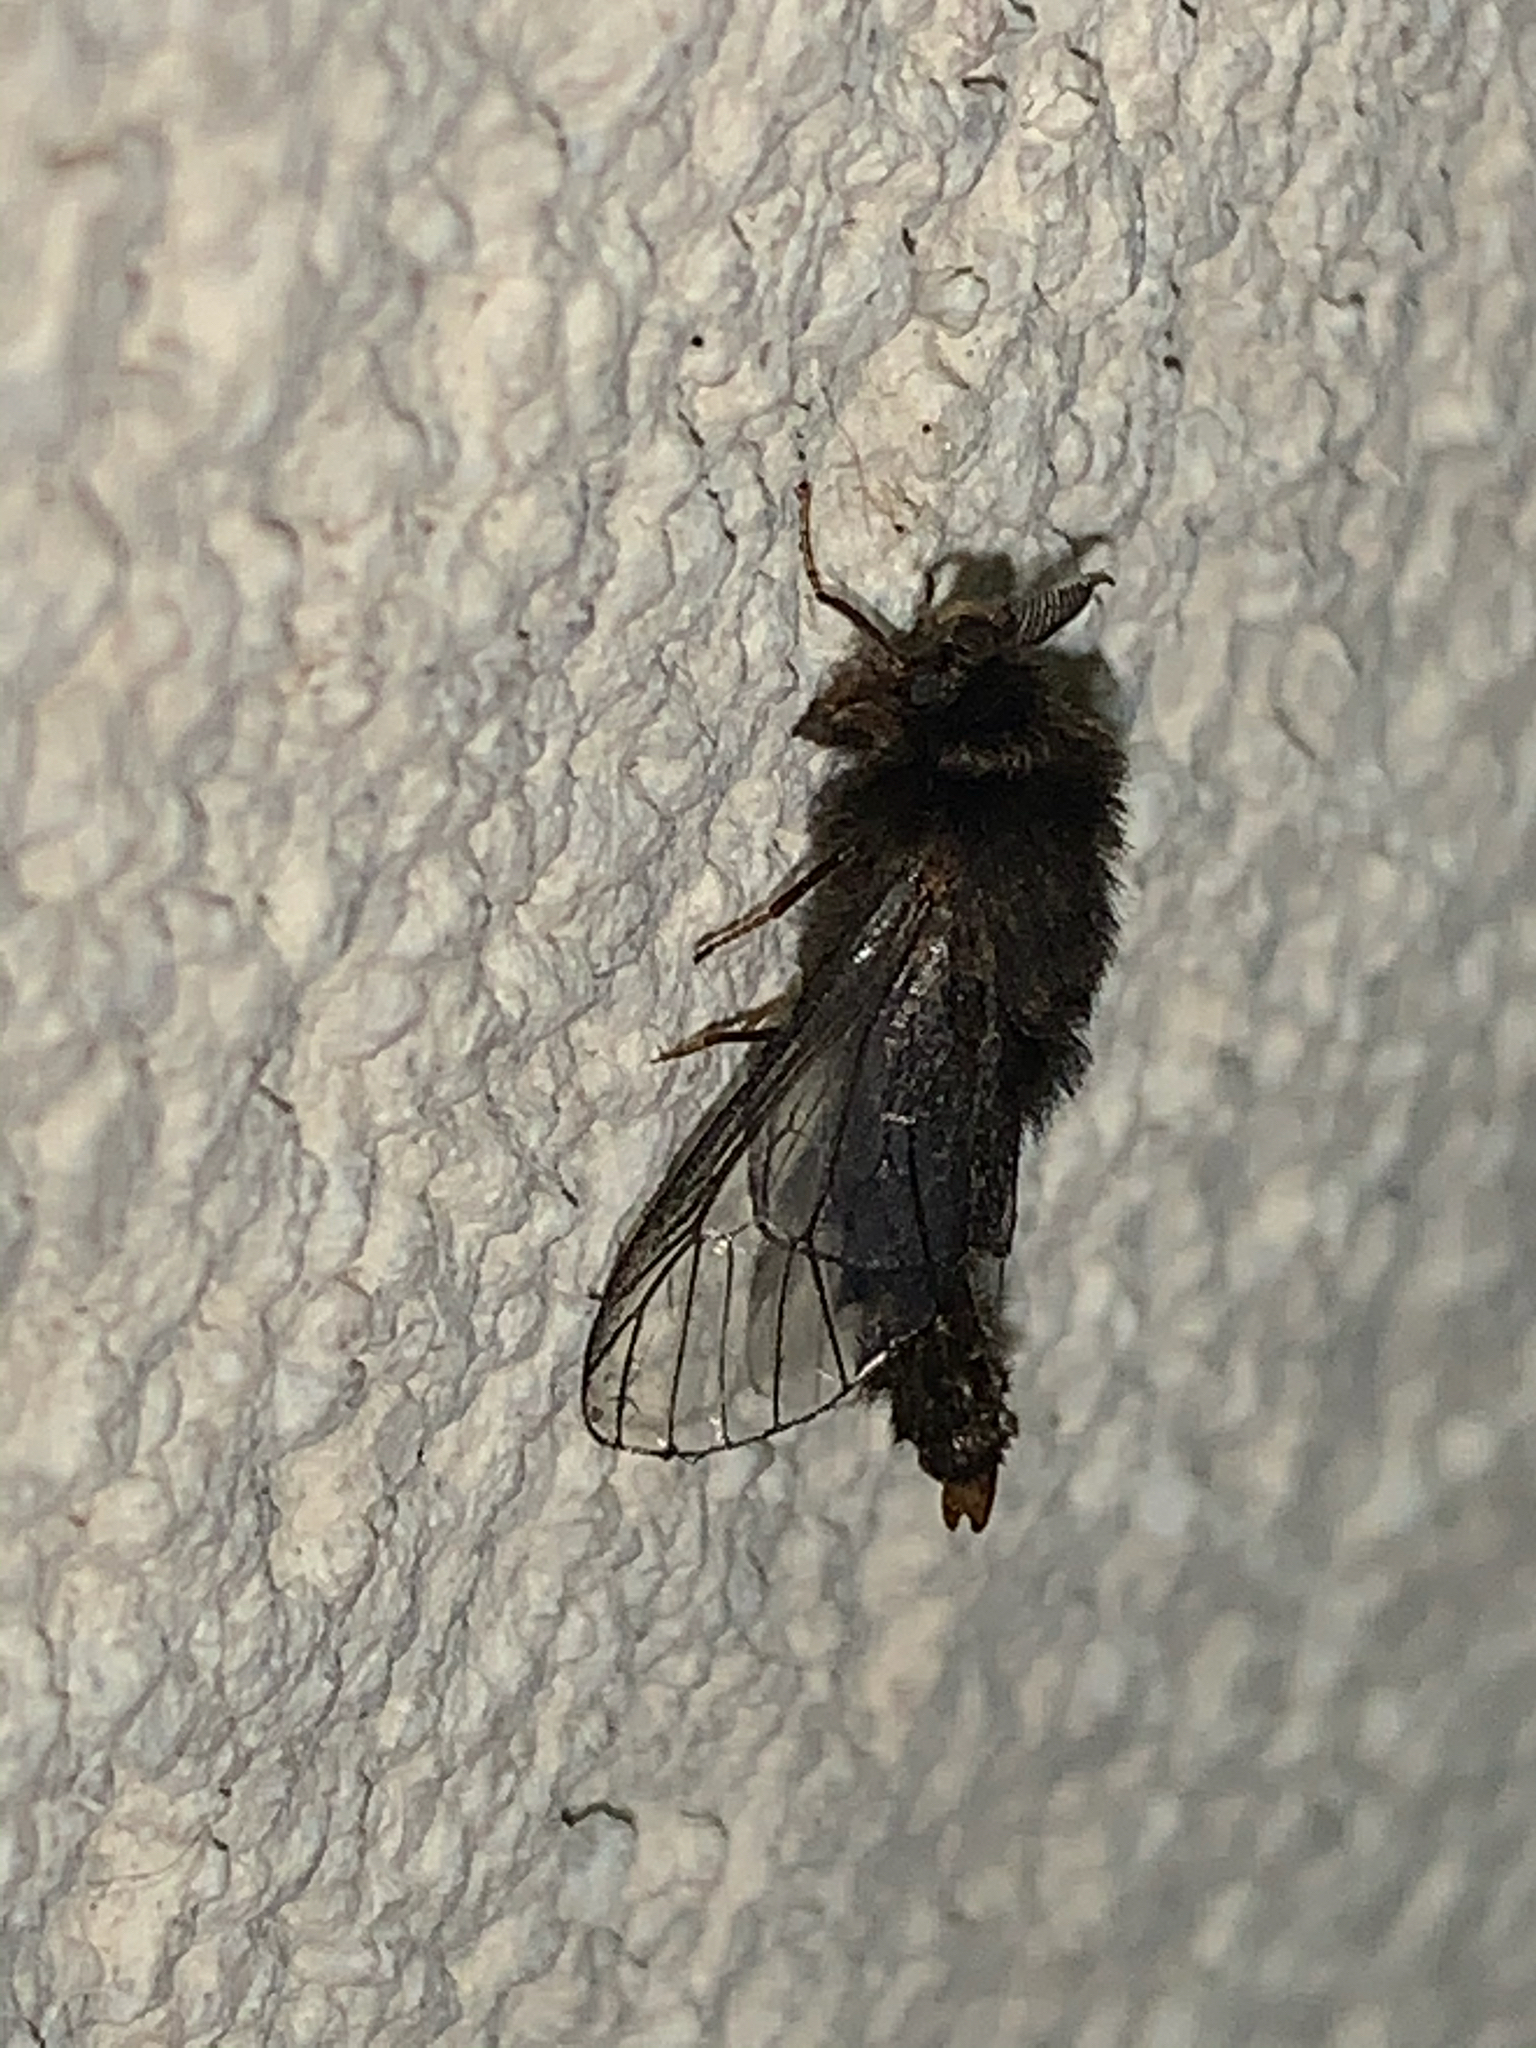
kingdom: Animalia
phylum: Arthropoda
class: Insecta
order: Lepidoptera
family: Psychidae
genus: Thyridopteryx
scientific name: Thyridopteryx ephemeraeformis
